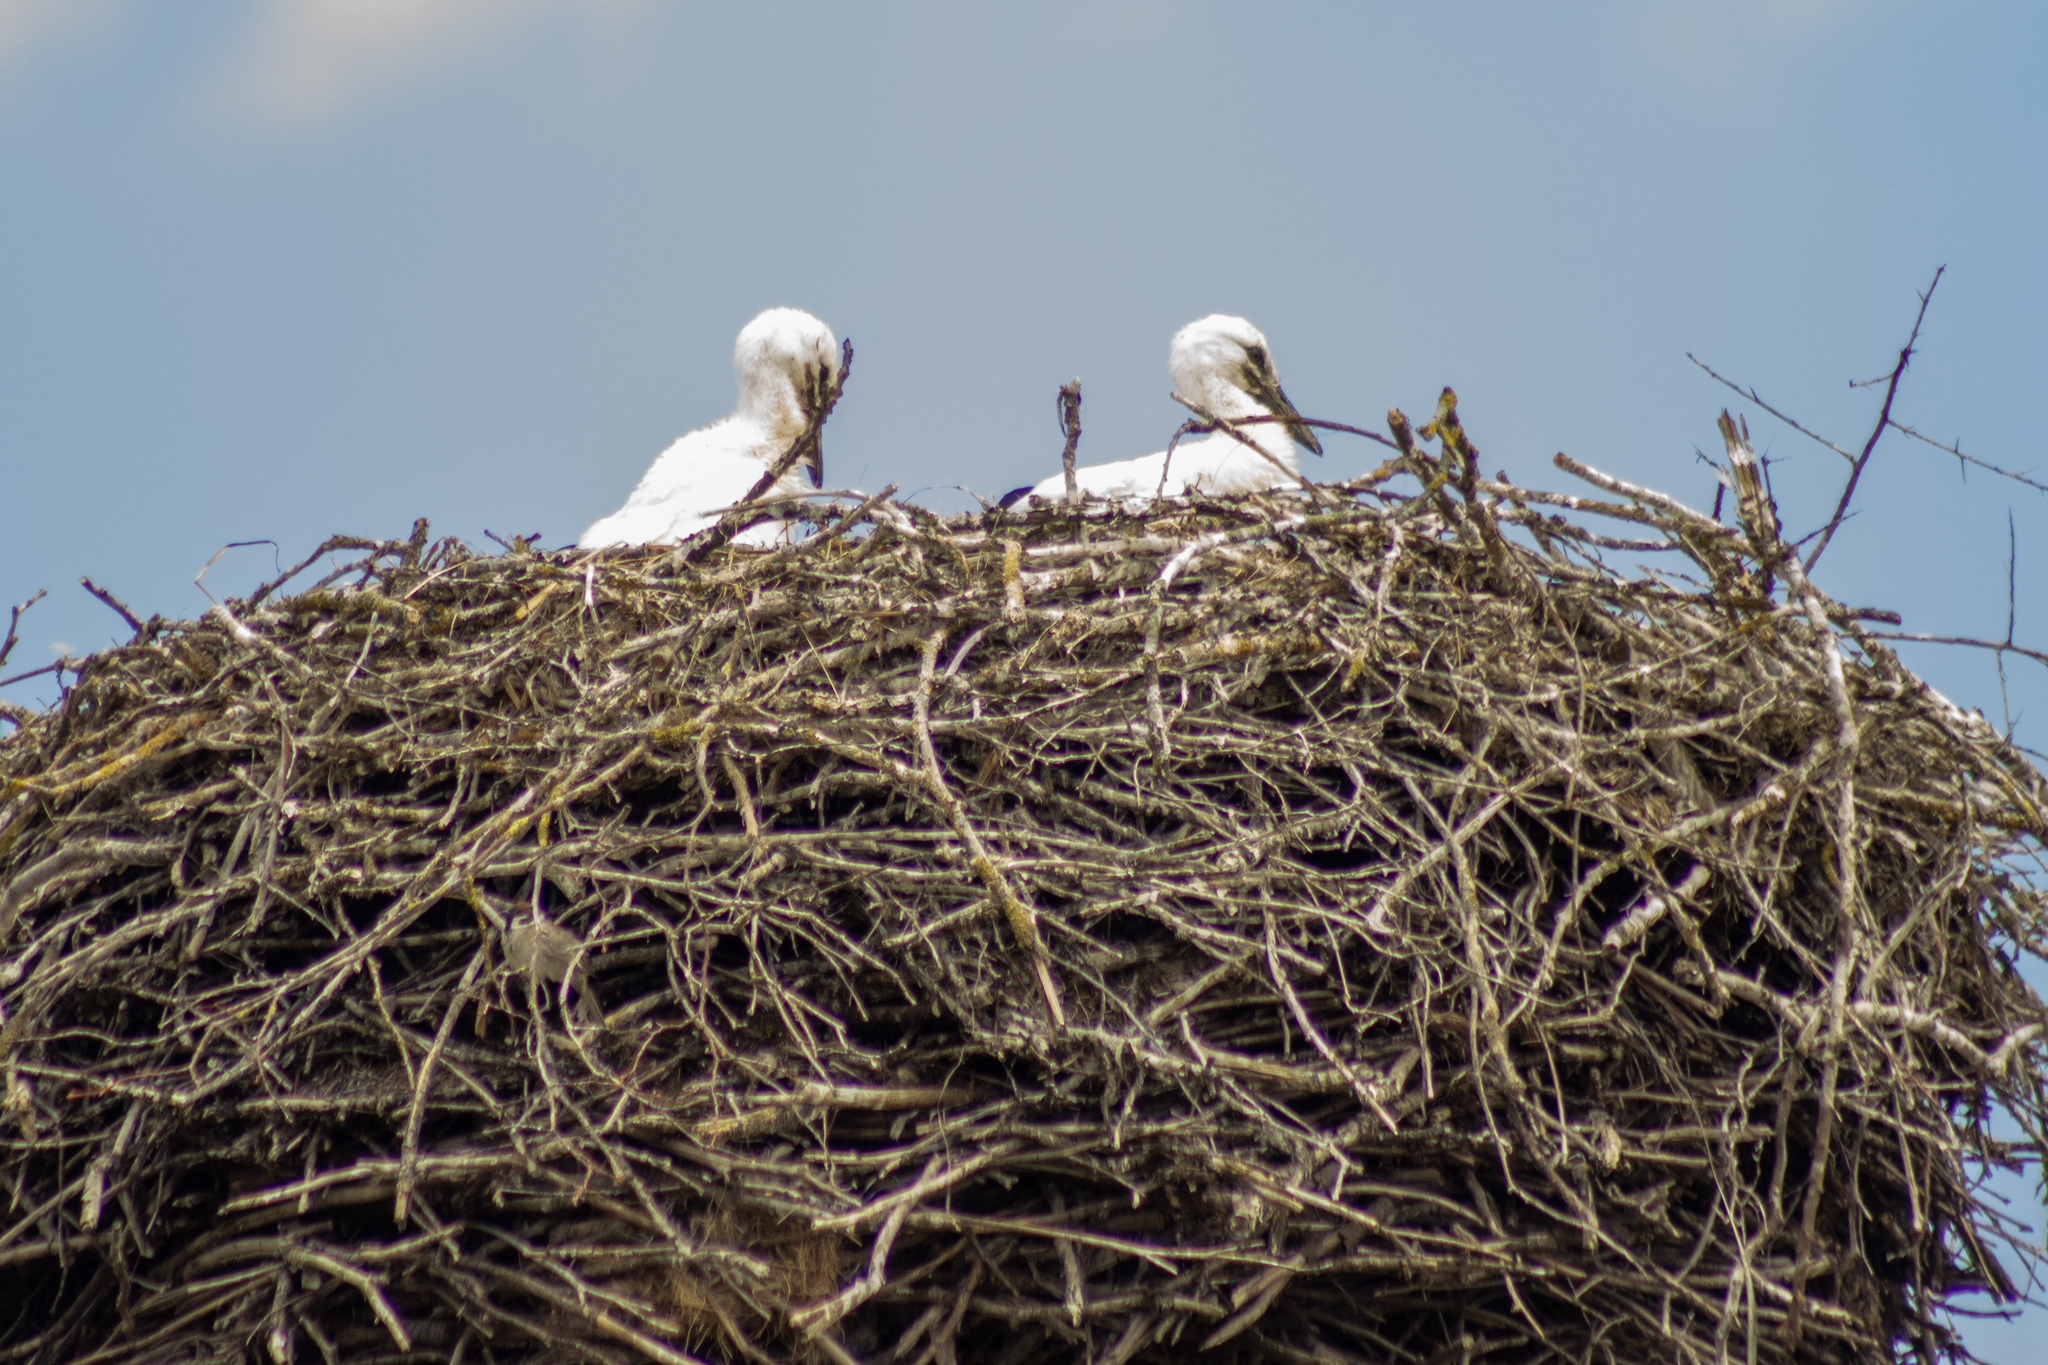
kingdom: Animalia
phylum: Chordata
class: Aves
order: Ciconiiformes
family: Ciconiidae
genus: Ciconia
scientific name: Ciconia ciconia
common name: White stork
